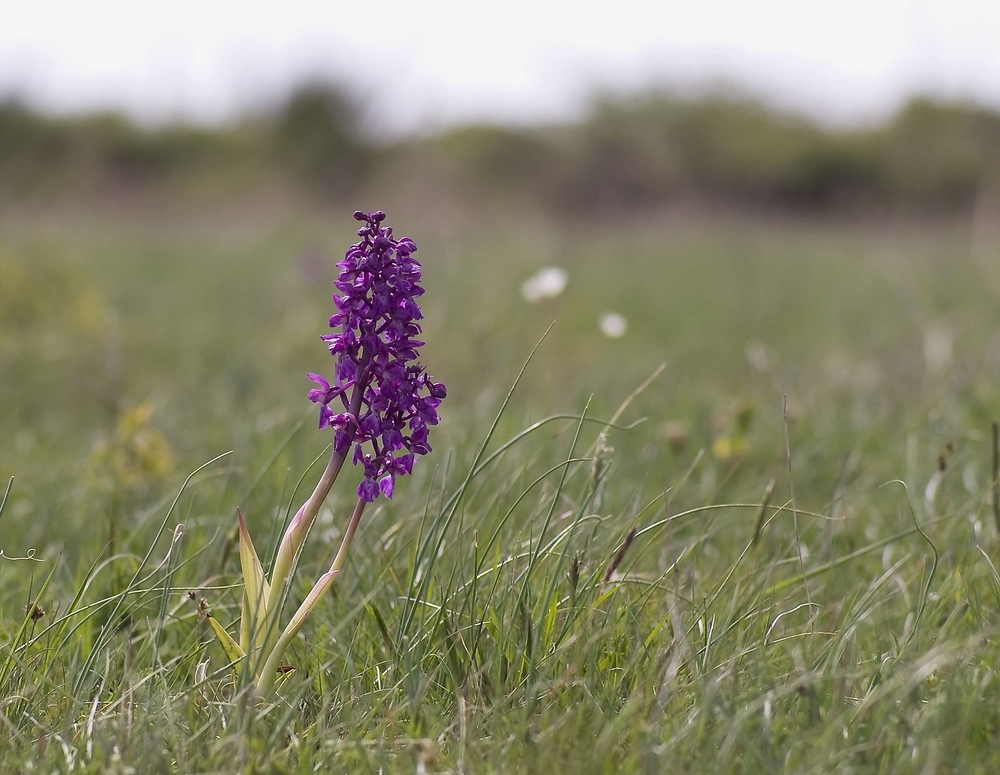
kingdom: Plantae
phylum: Tracheophyta
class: Liliopsida
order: Asparagales
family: Orchidaceae
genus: Orchis
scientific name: Orchis mascula
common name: Early-purple orchid
